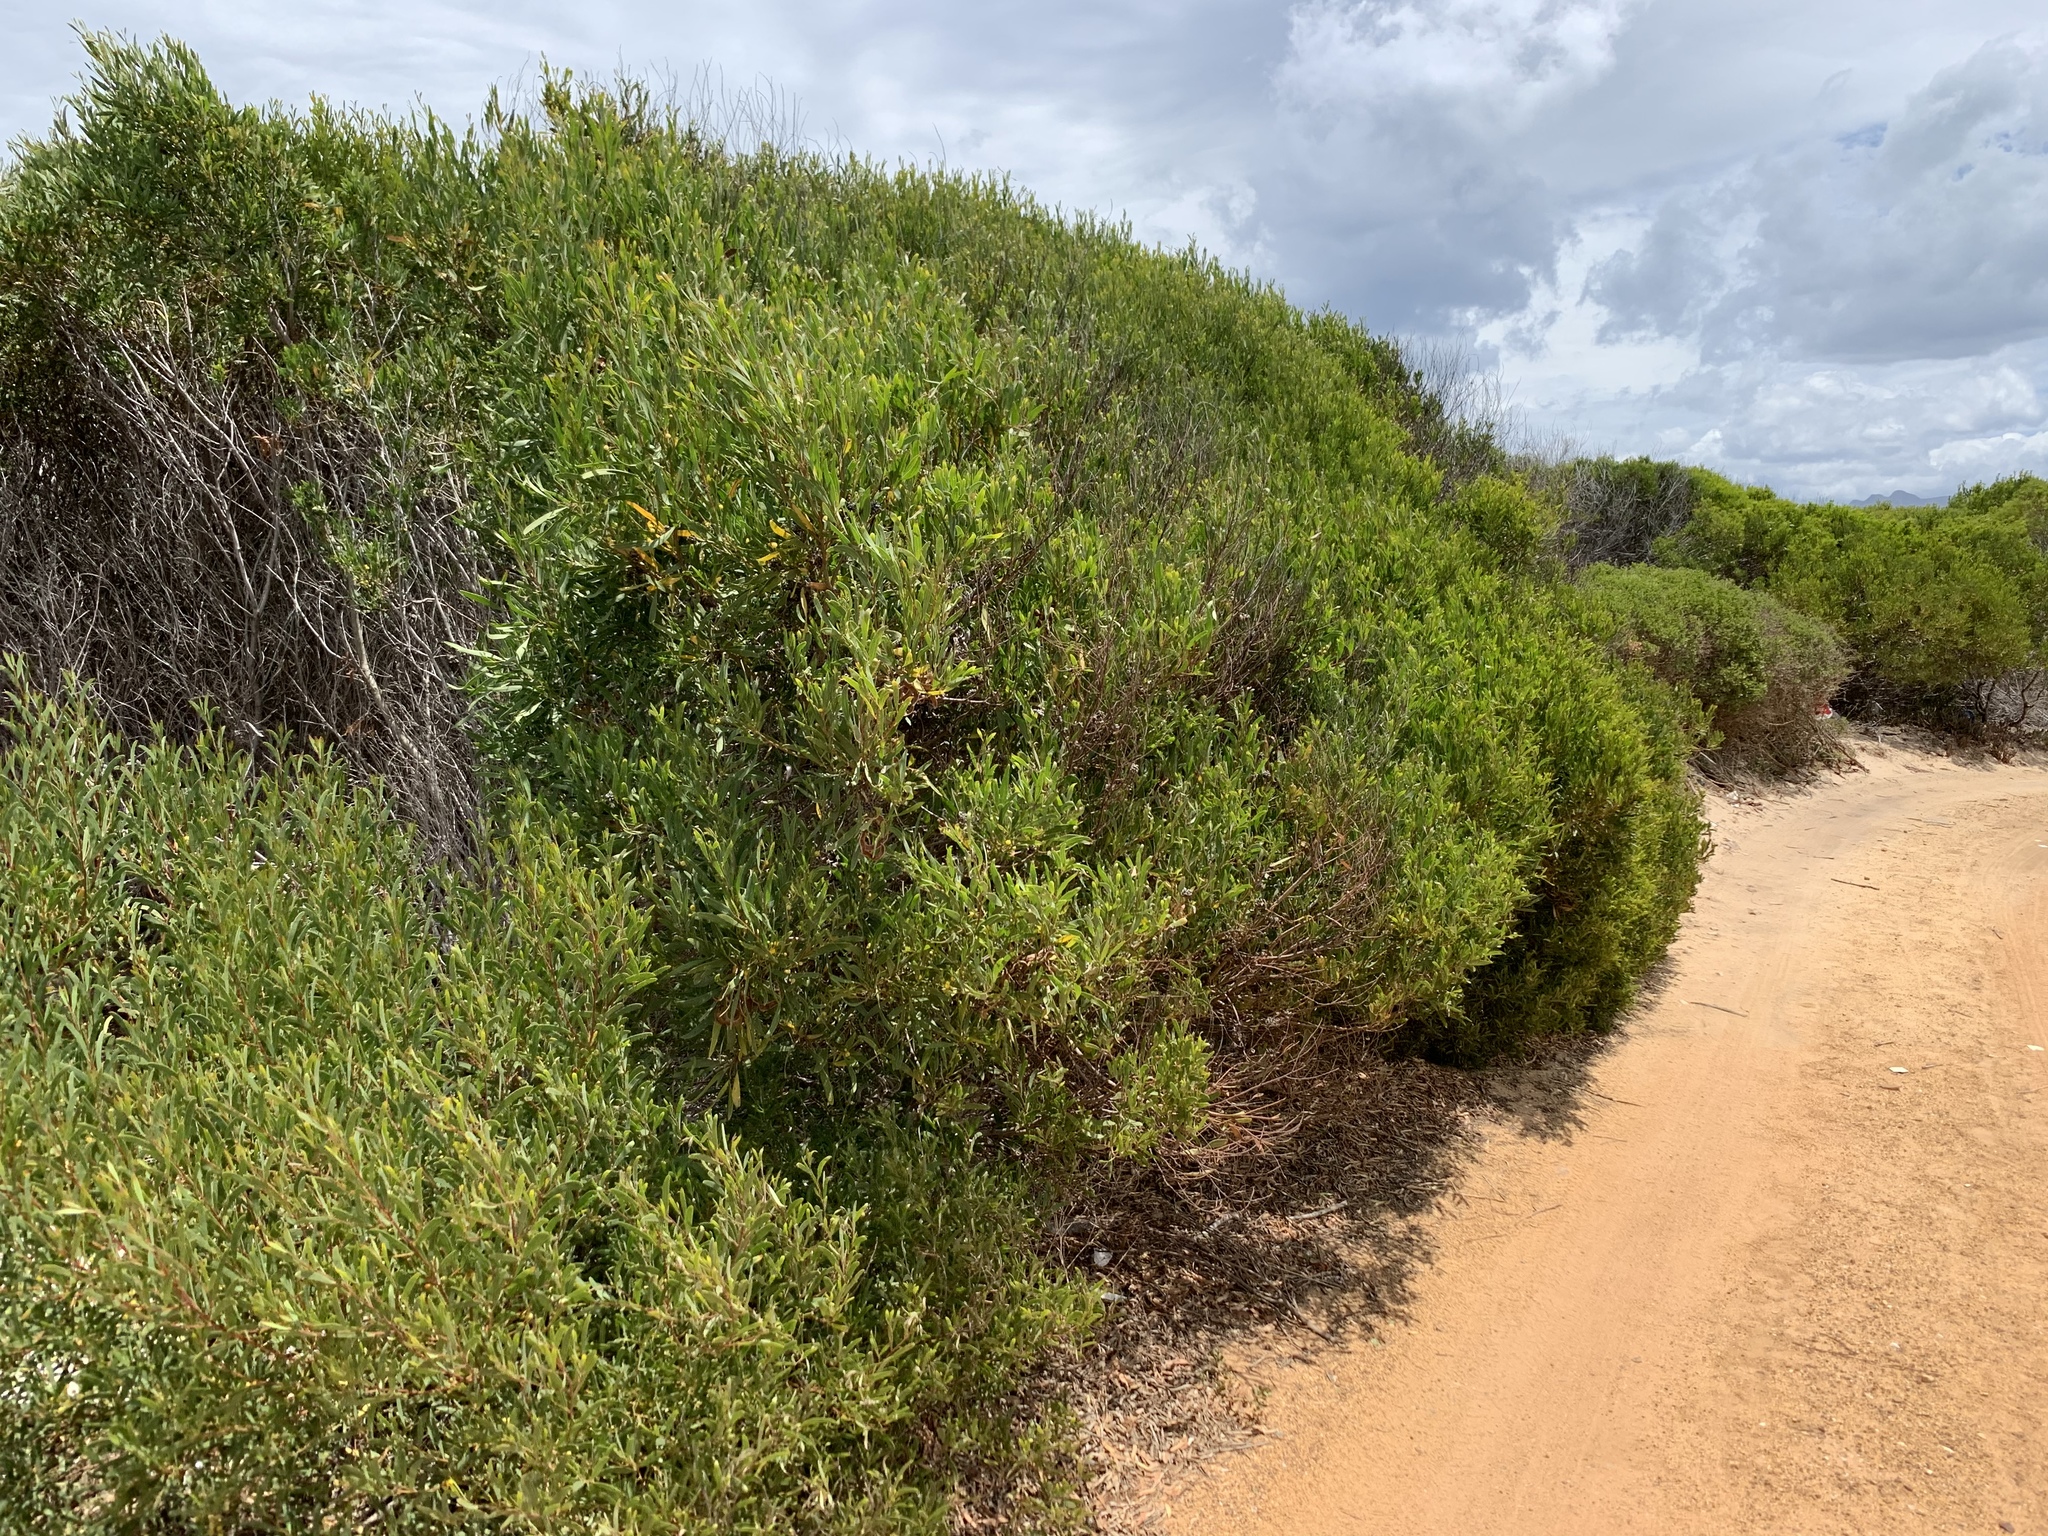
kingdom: Plantae
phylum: Tracheophyta
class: Magnoliopsida
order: Fabales
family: Fabaceae
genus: Acacia
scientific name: Acacia cyclops
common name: Coastal wattle
